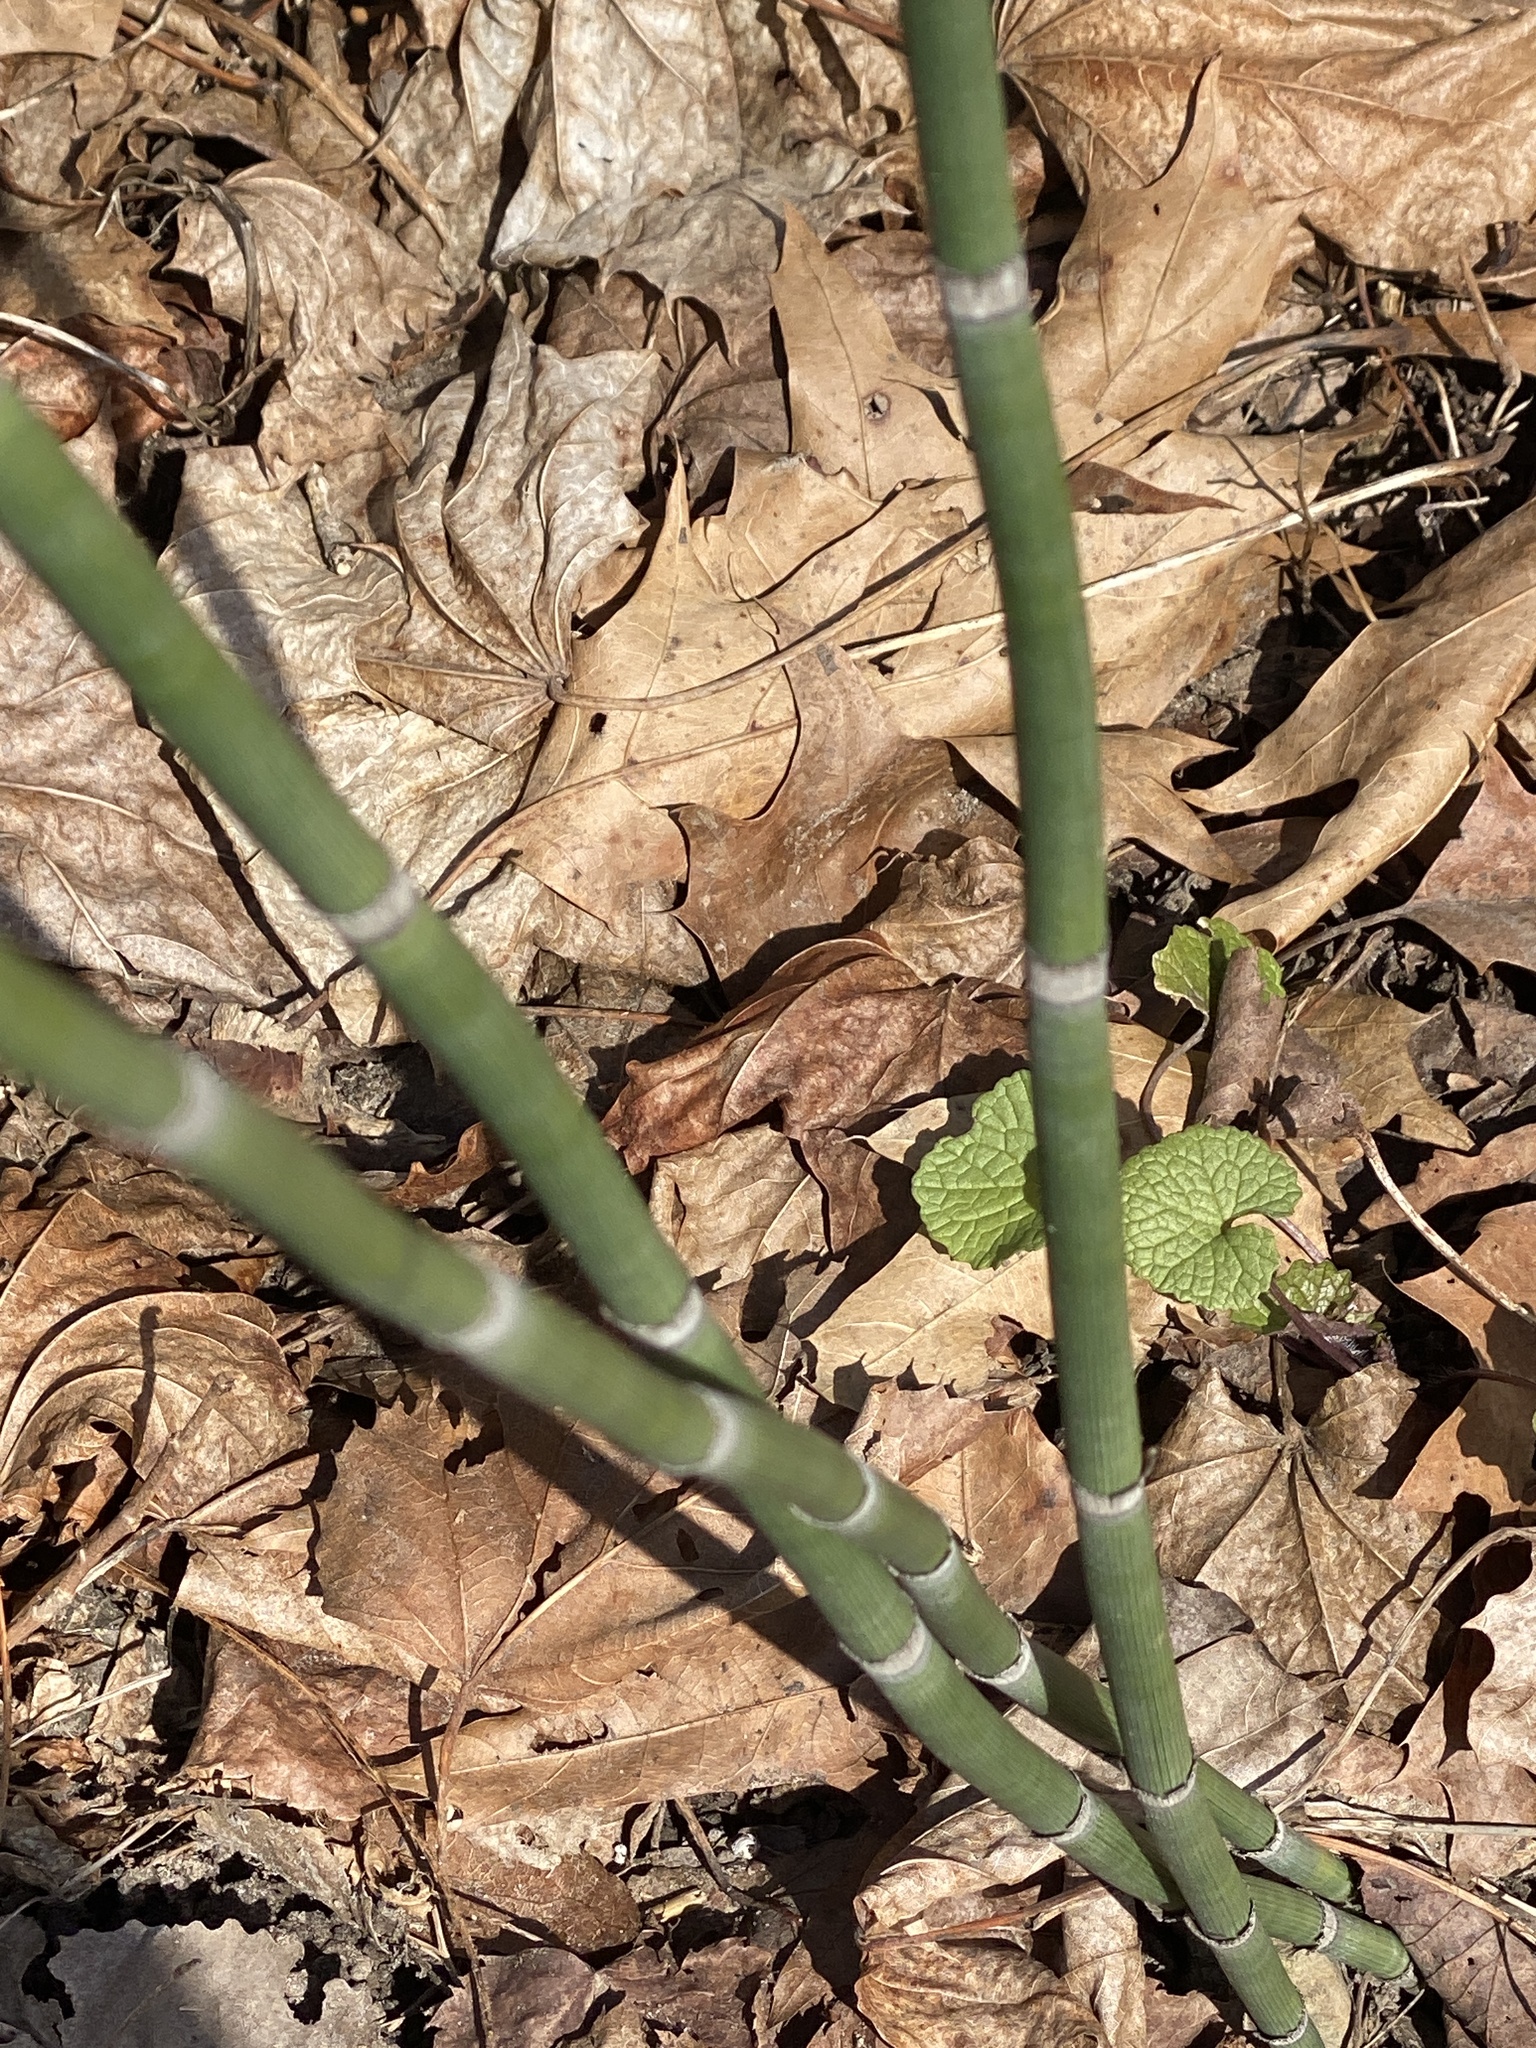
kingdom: Plantae
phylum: Tracheophyta
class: Polypodiopsida
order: Equisetales
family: Equisetaceae
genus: Equisetum
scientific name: Equisetum hyemale
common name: Rough horsetail
